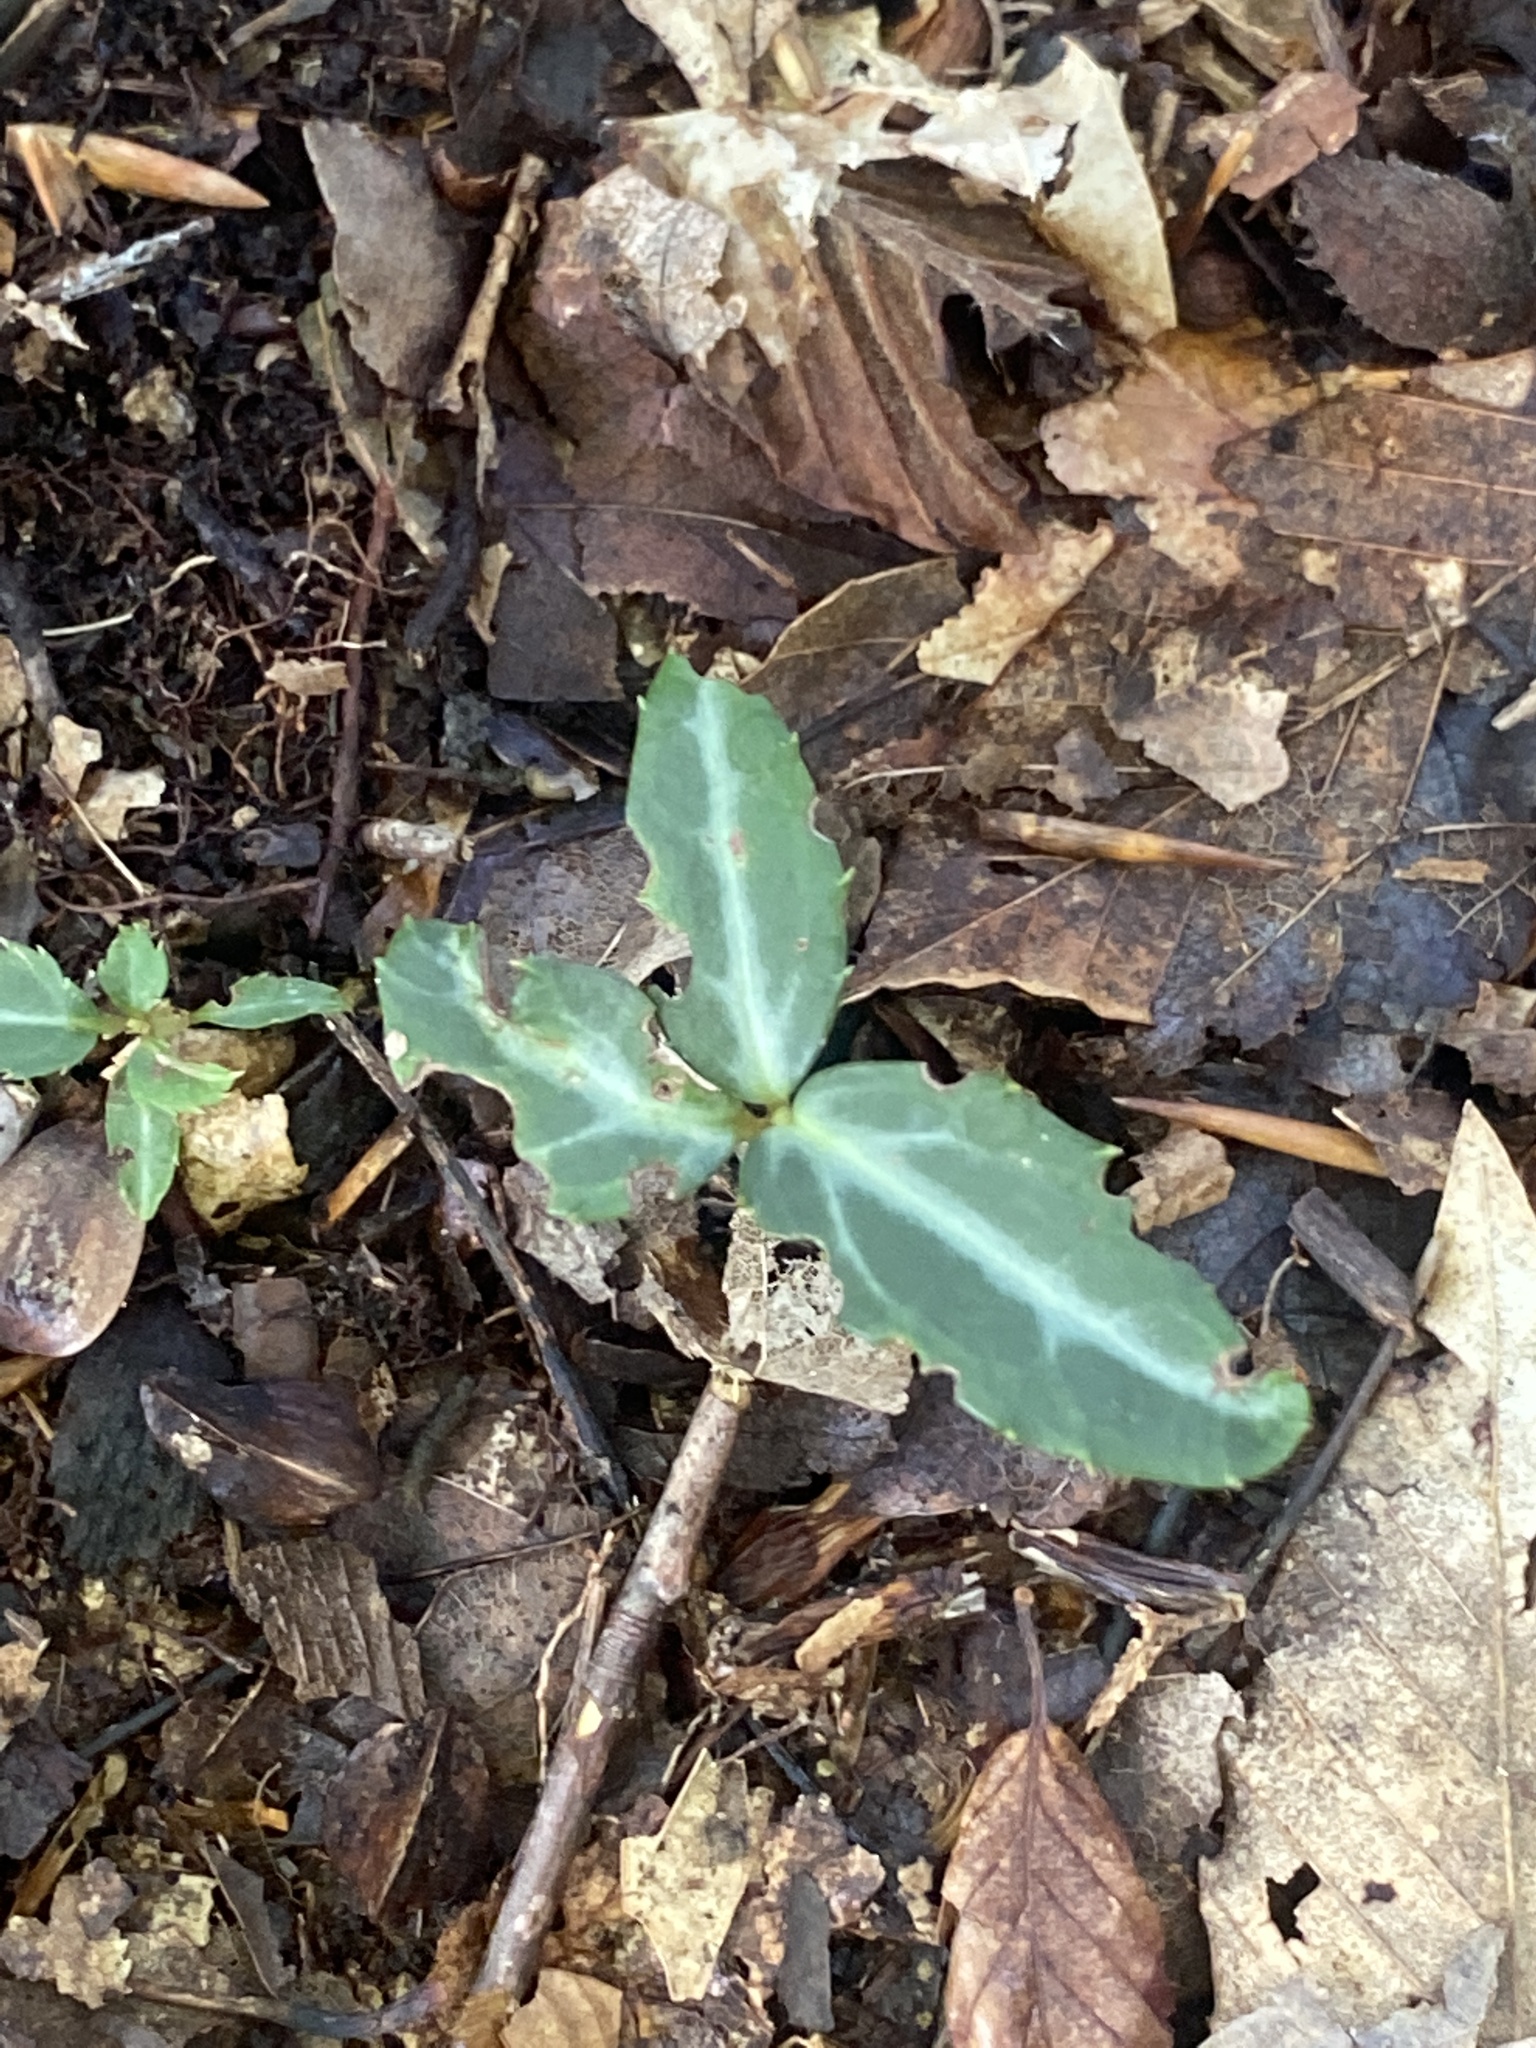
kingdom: Plantae
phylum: Tracheophyta
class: Magnoliopsida
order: Ericales
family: Ericaceae
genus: Chimaphila
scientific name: Chimaphila maculata
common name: Spotted pipsissewa
